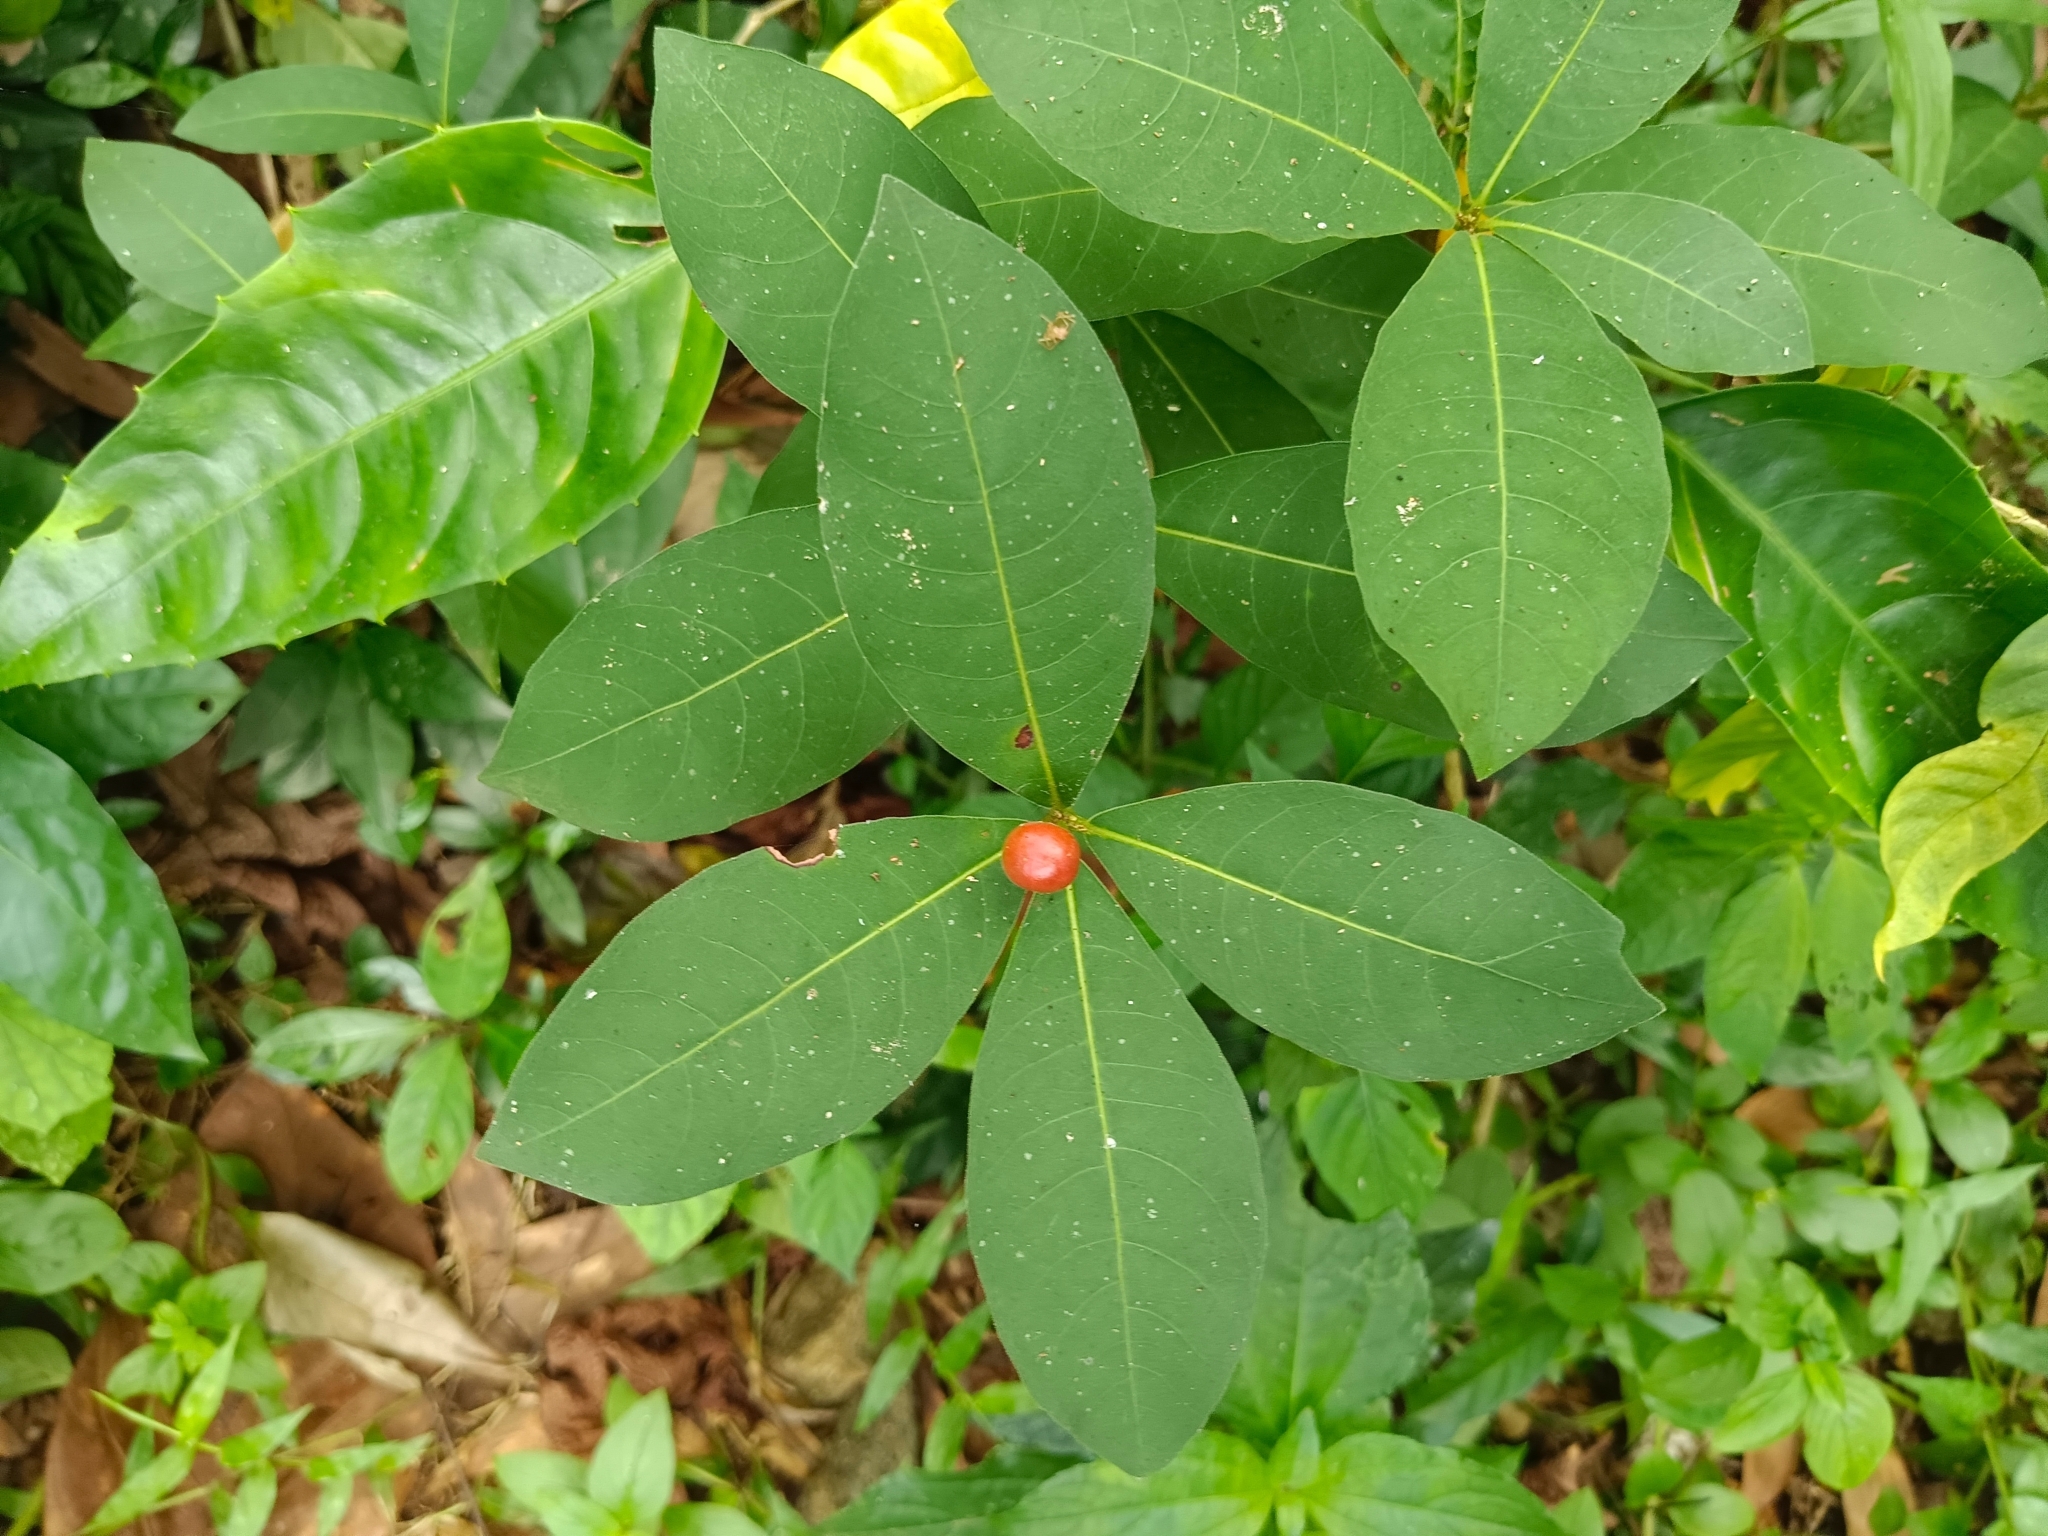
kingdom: Plantae
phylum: Tracheophyta
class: Magnoliopsida
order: Gentianales
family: Apocynaceae
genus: Rauvolfia
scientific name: Rauvolfia tetraphylla
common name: Four-leaf devil-pepper
